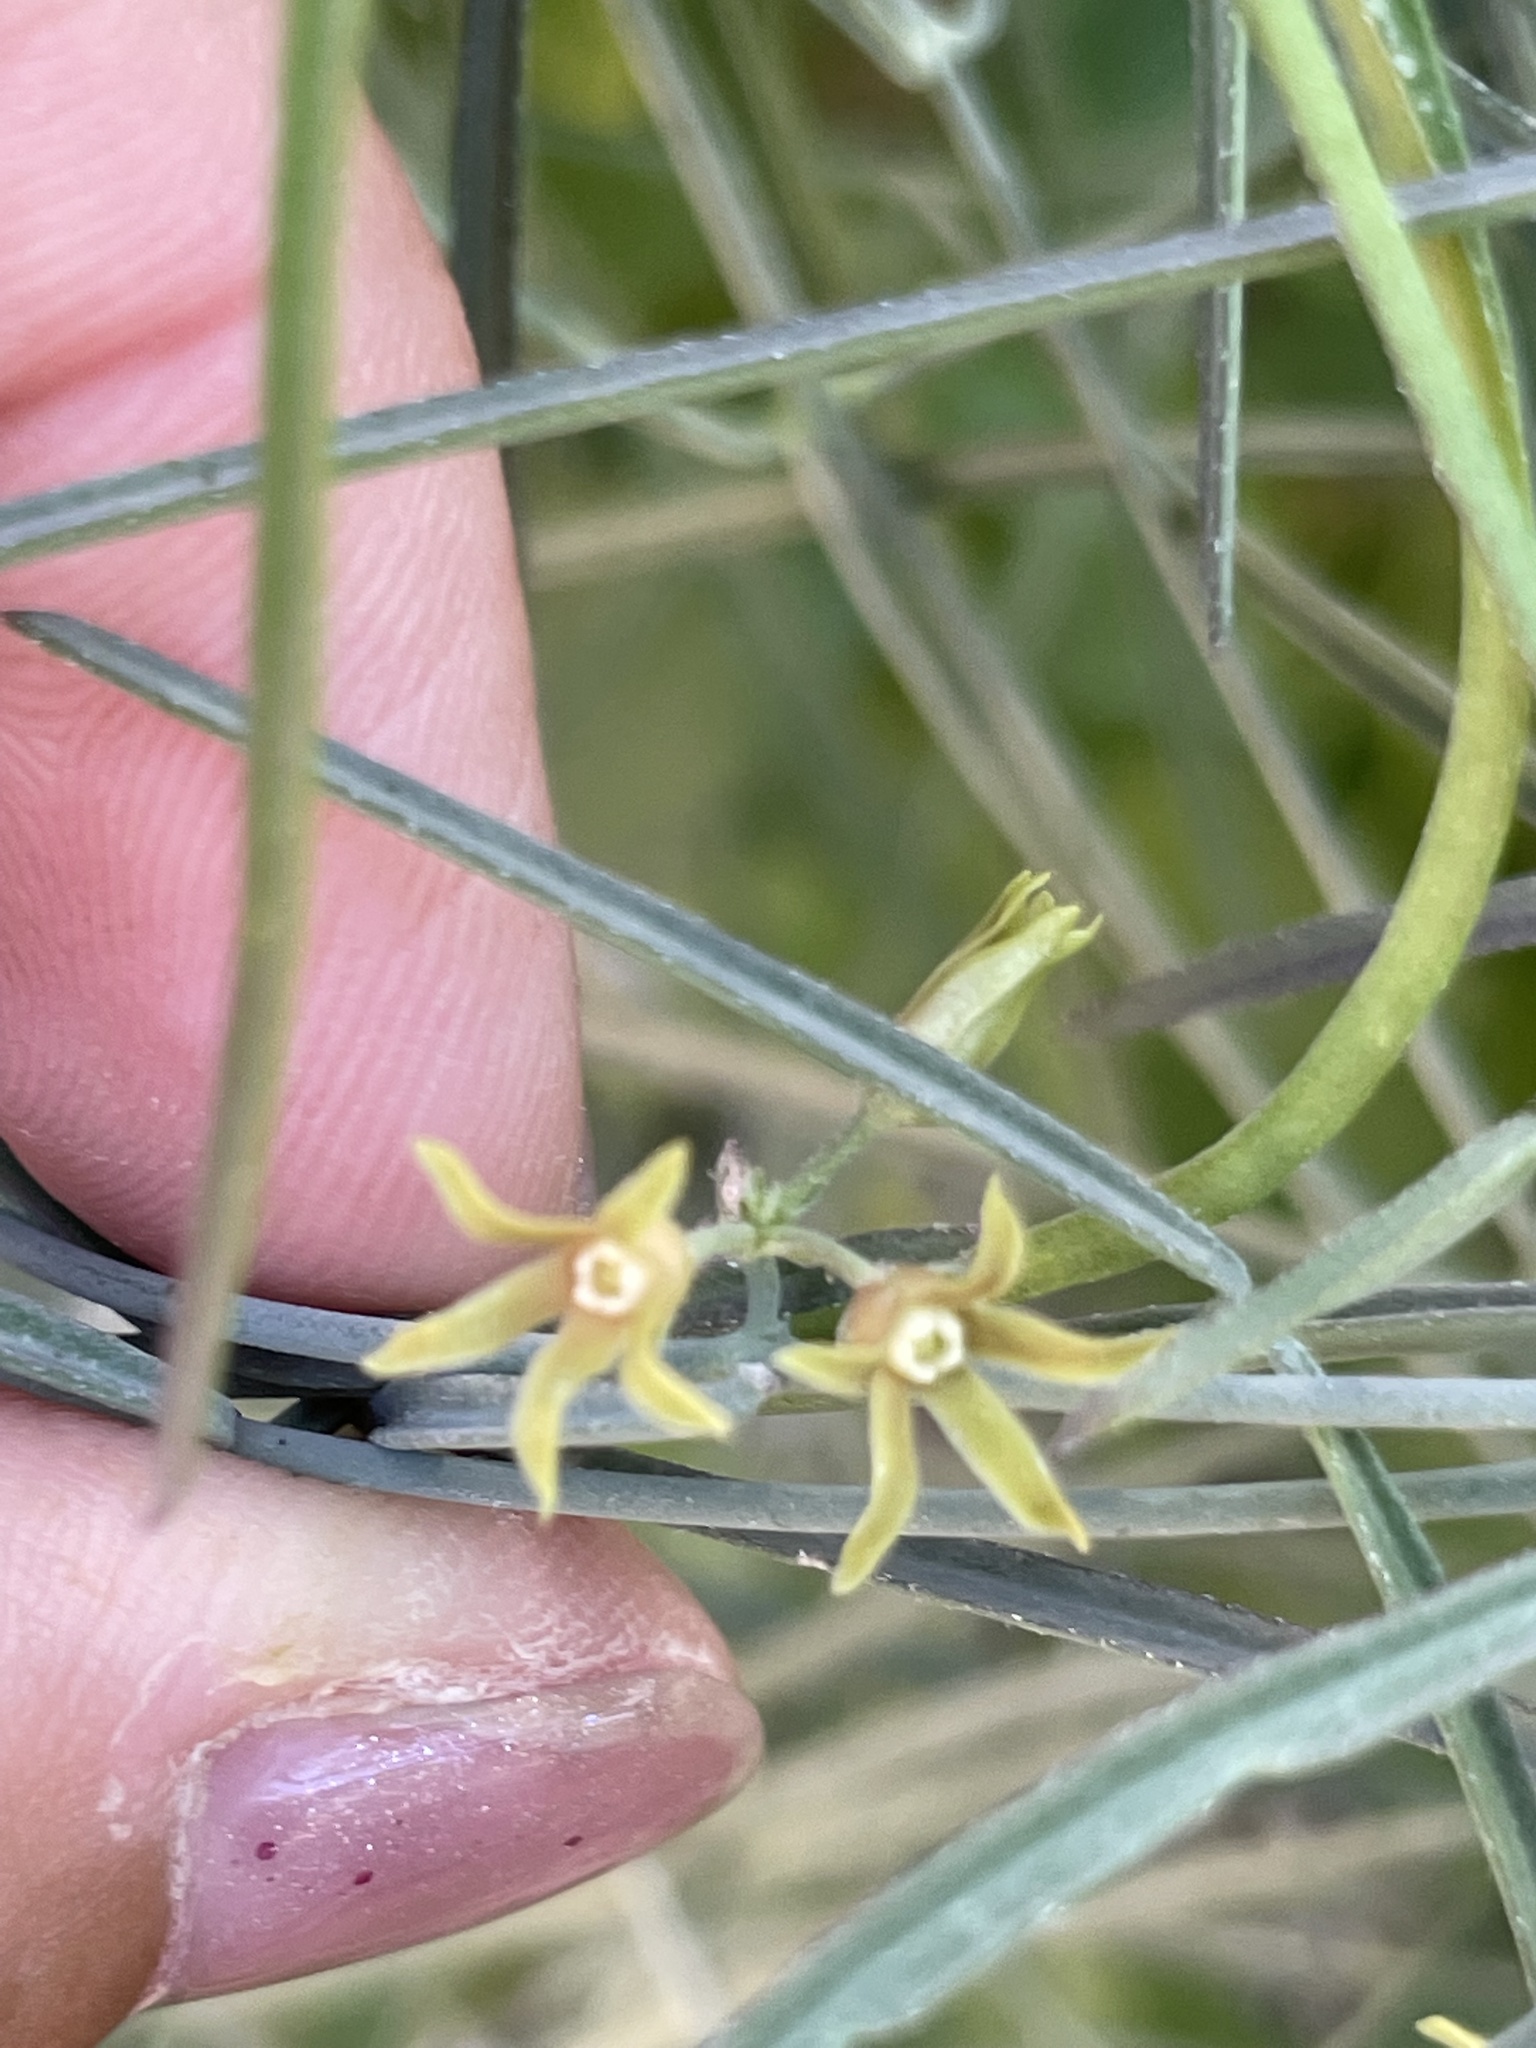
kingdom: Plantae
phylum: Tracheophyta
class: Magnoliopsida
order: Gentianales
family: Apocynaceae
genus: Pattalias
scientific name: Pattalias palmeri
